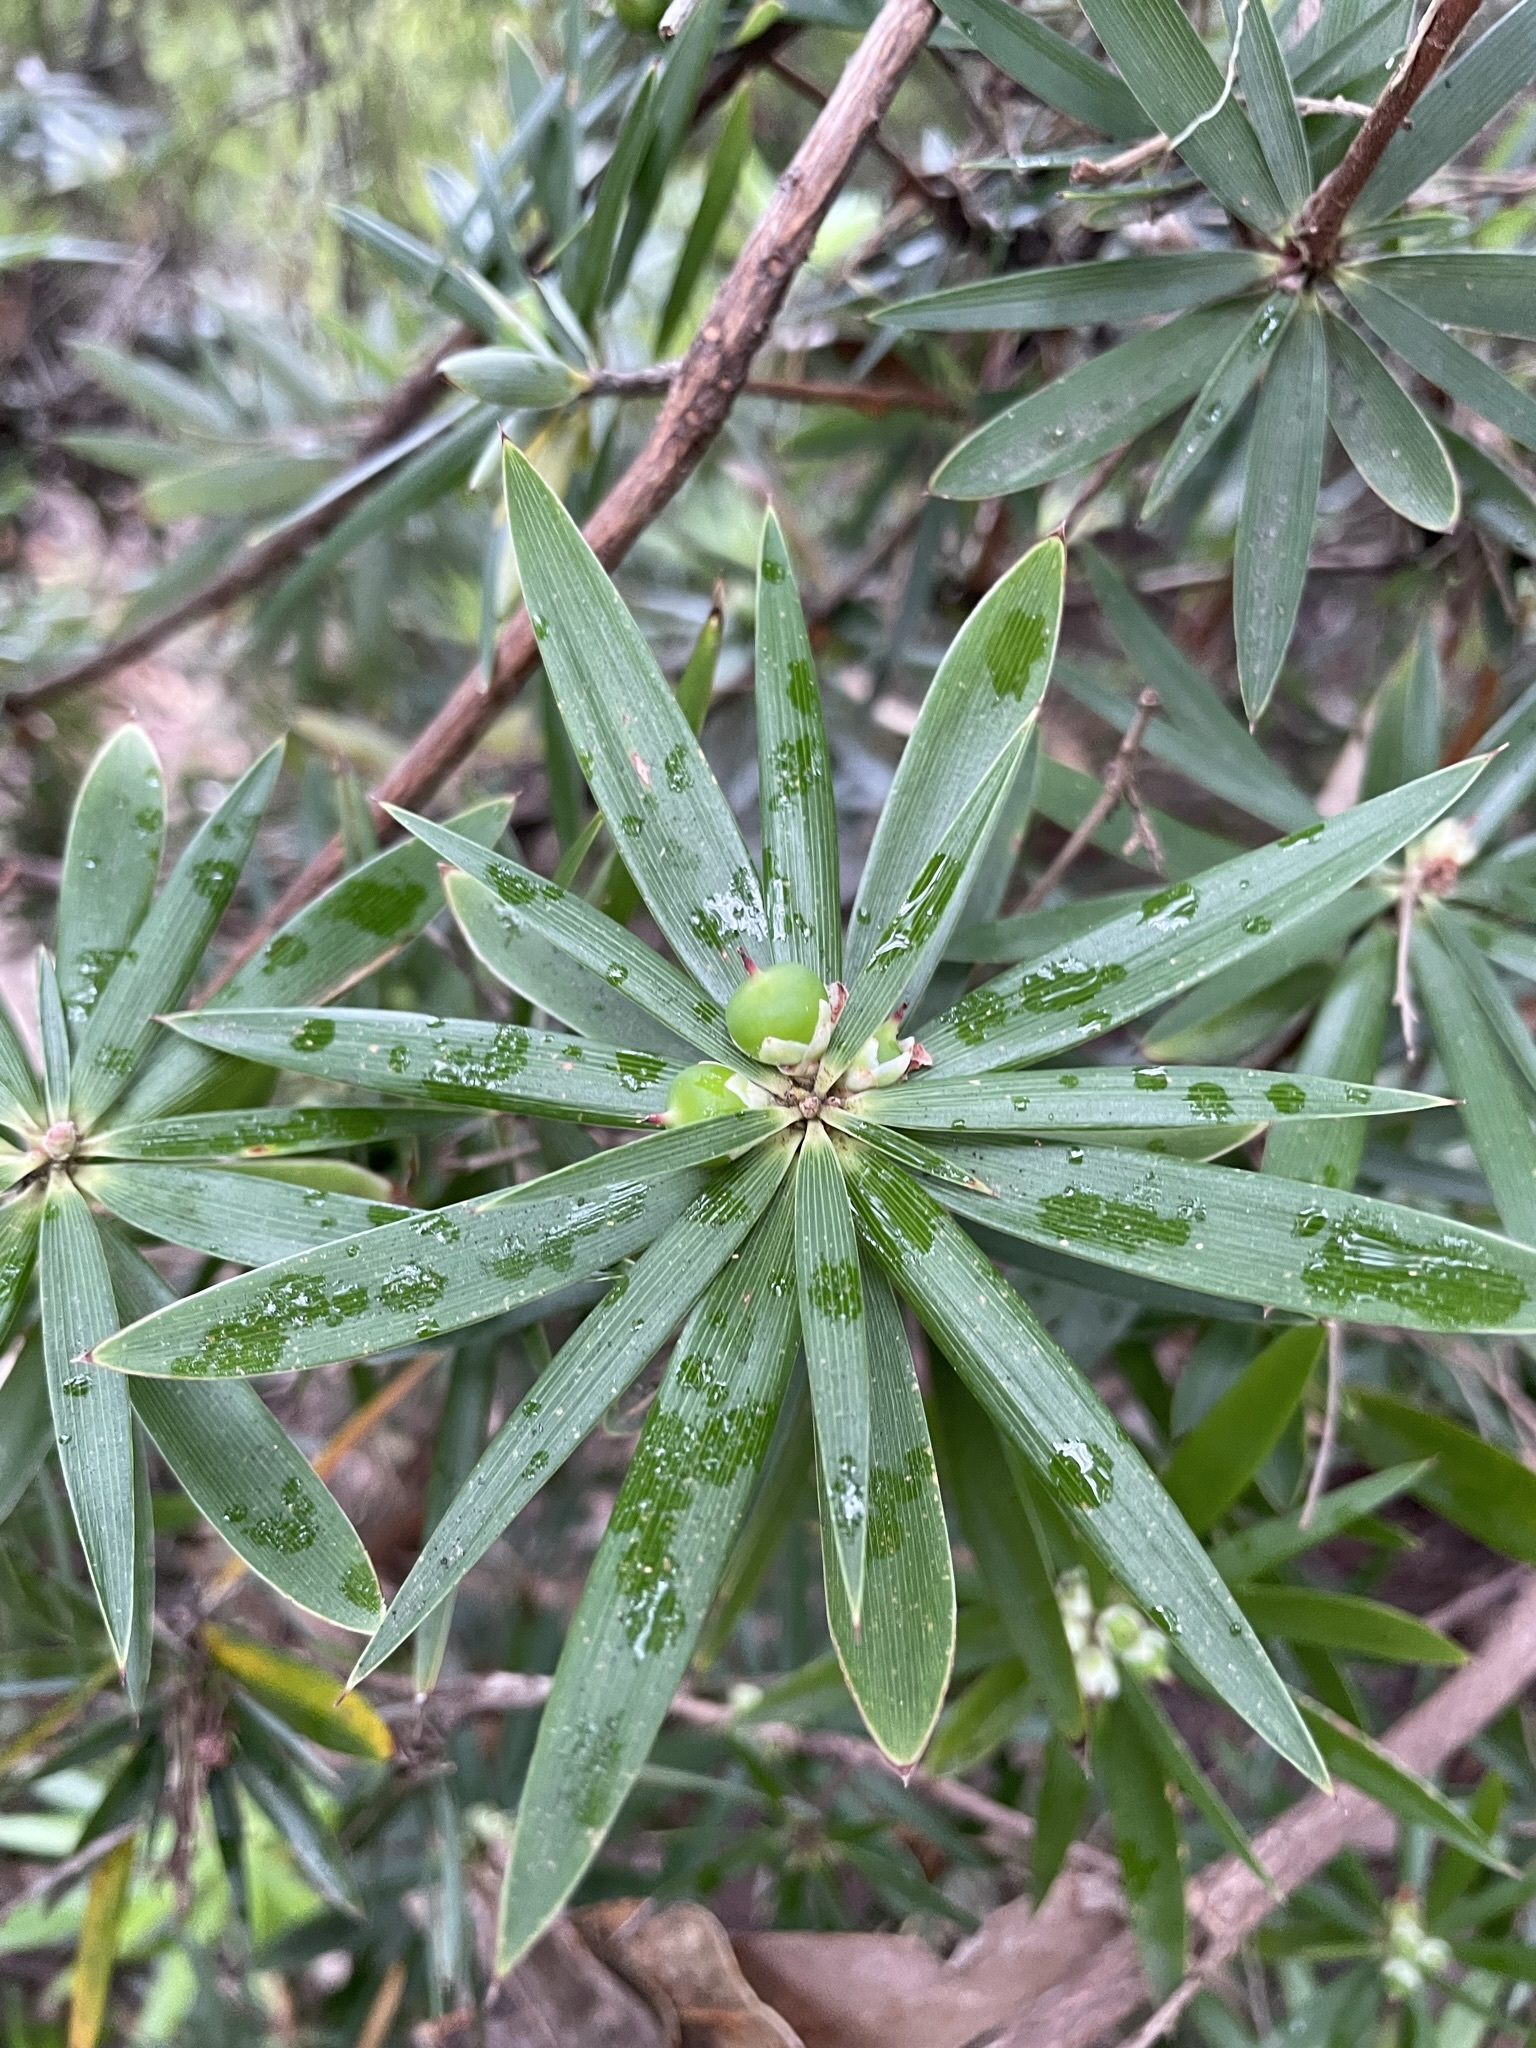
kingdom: Plantae
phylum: Tracheophyta
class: Magnoliopsida
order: Ericales
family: Ericaceae
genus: Cyathodes
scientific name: Cyathodes platystoma
